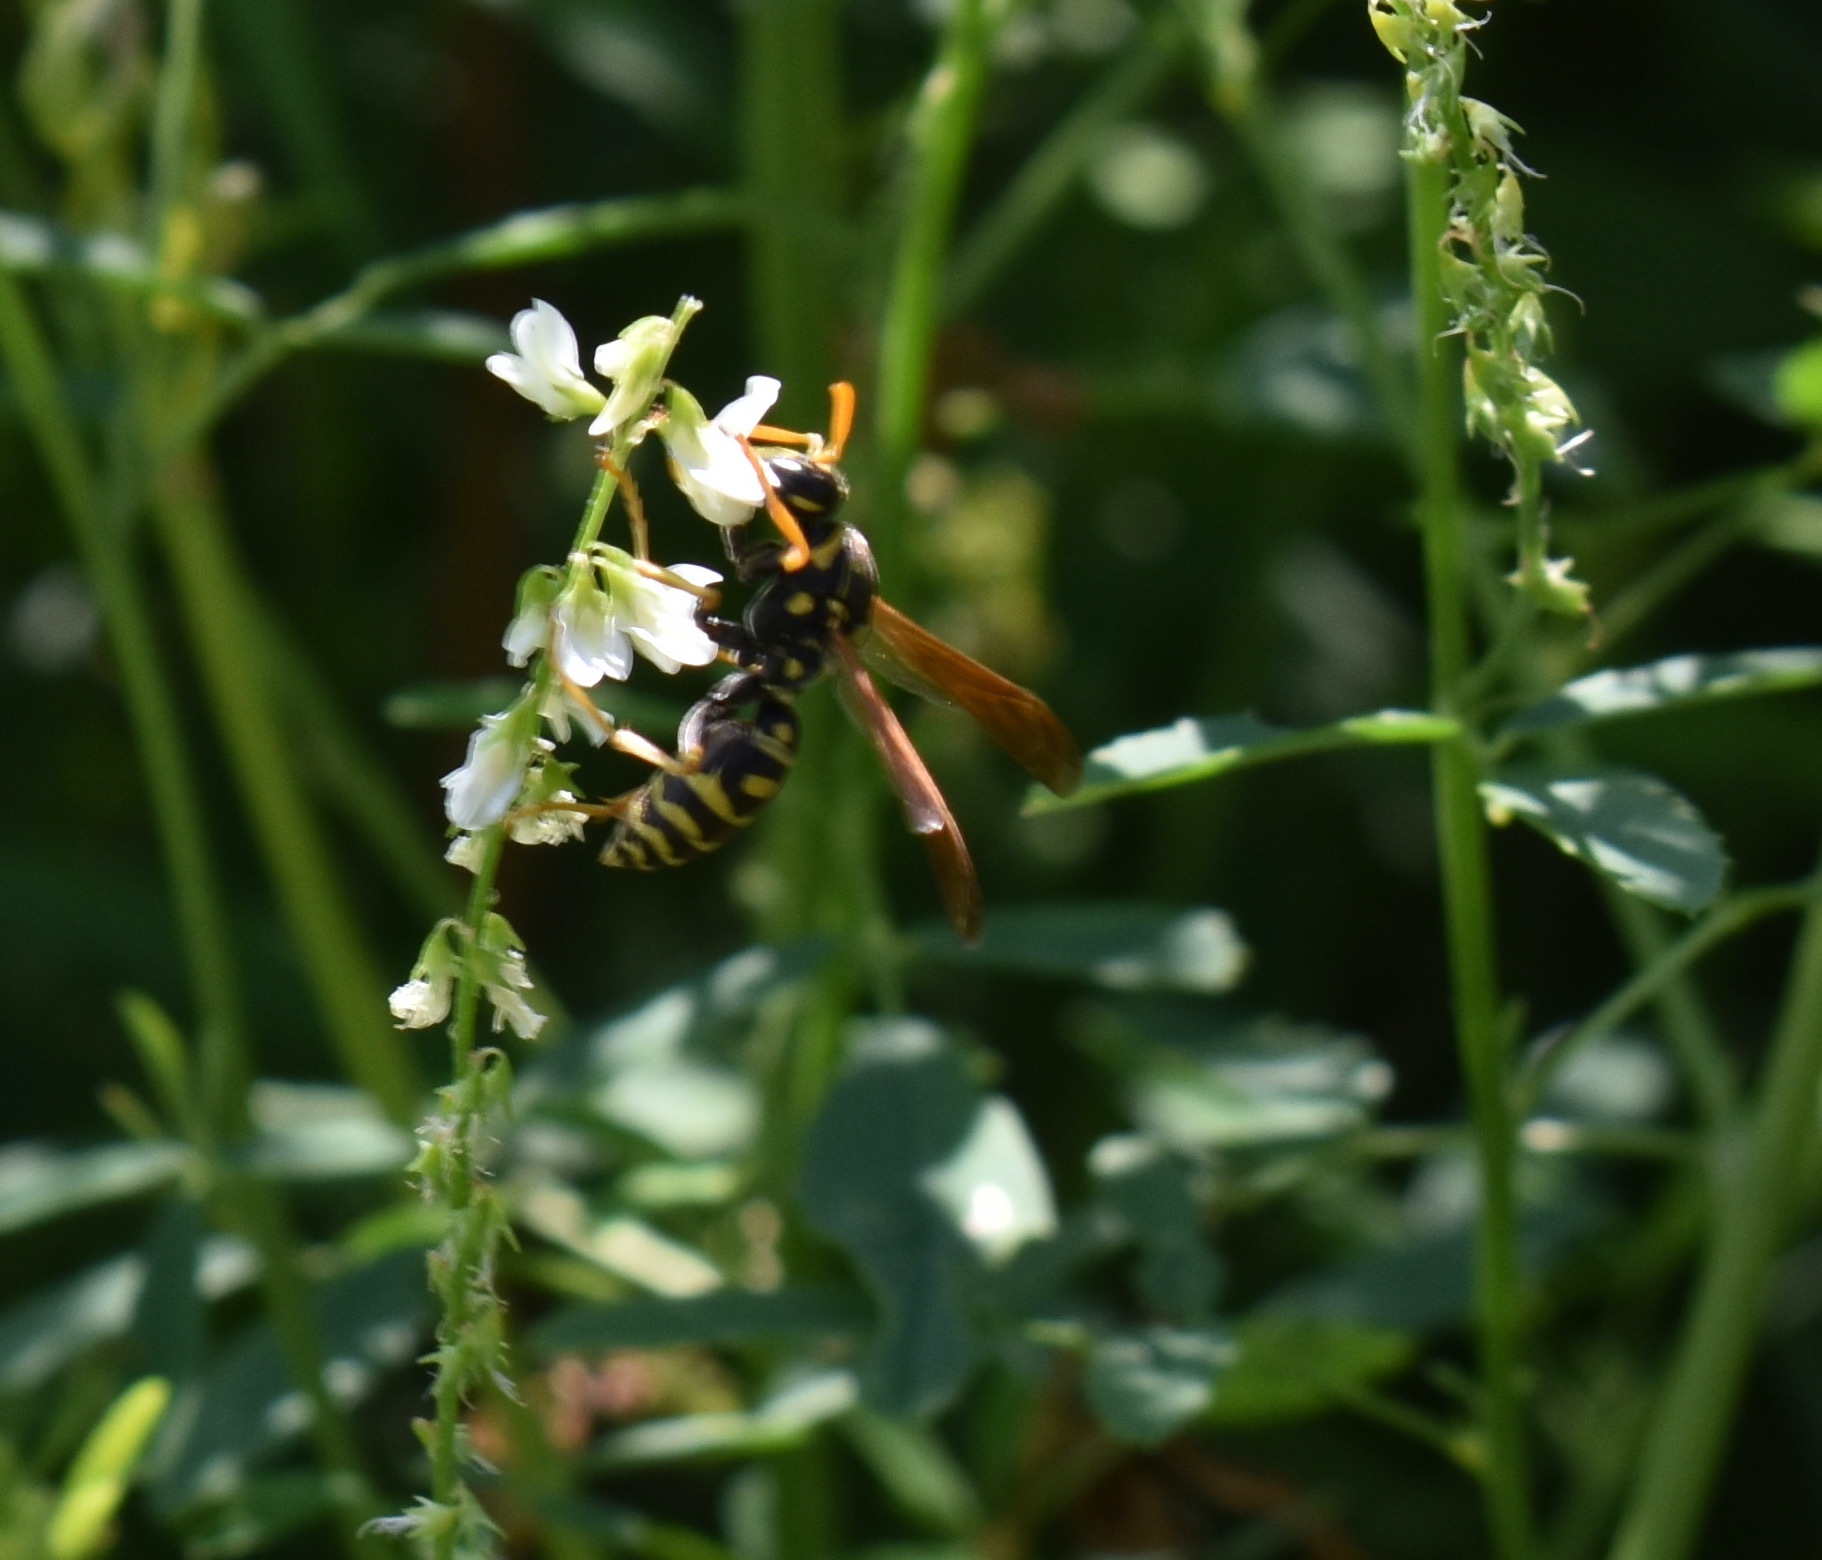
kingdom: Animalia
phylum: Arthropoda
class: Insecta
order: Hymenoptera
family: Eumenidae
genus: Polistes
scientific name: Polistes dominula
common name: Paper wasp
